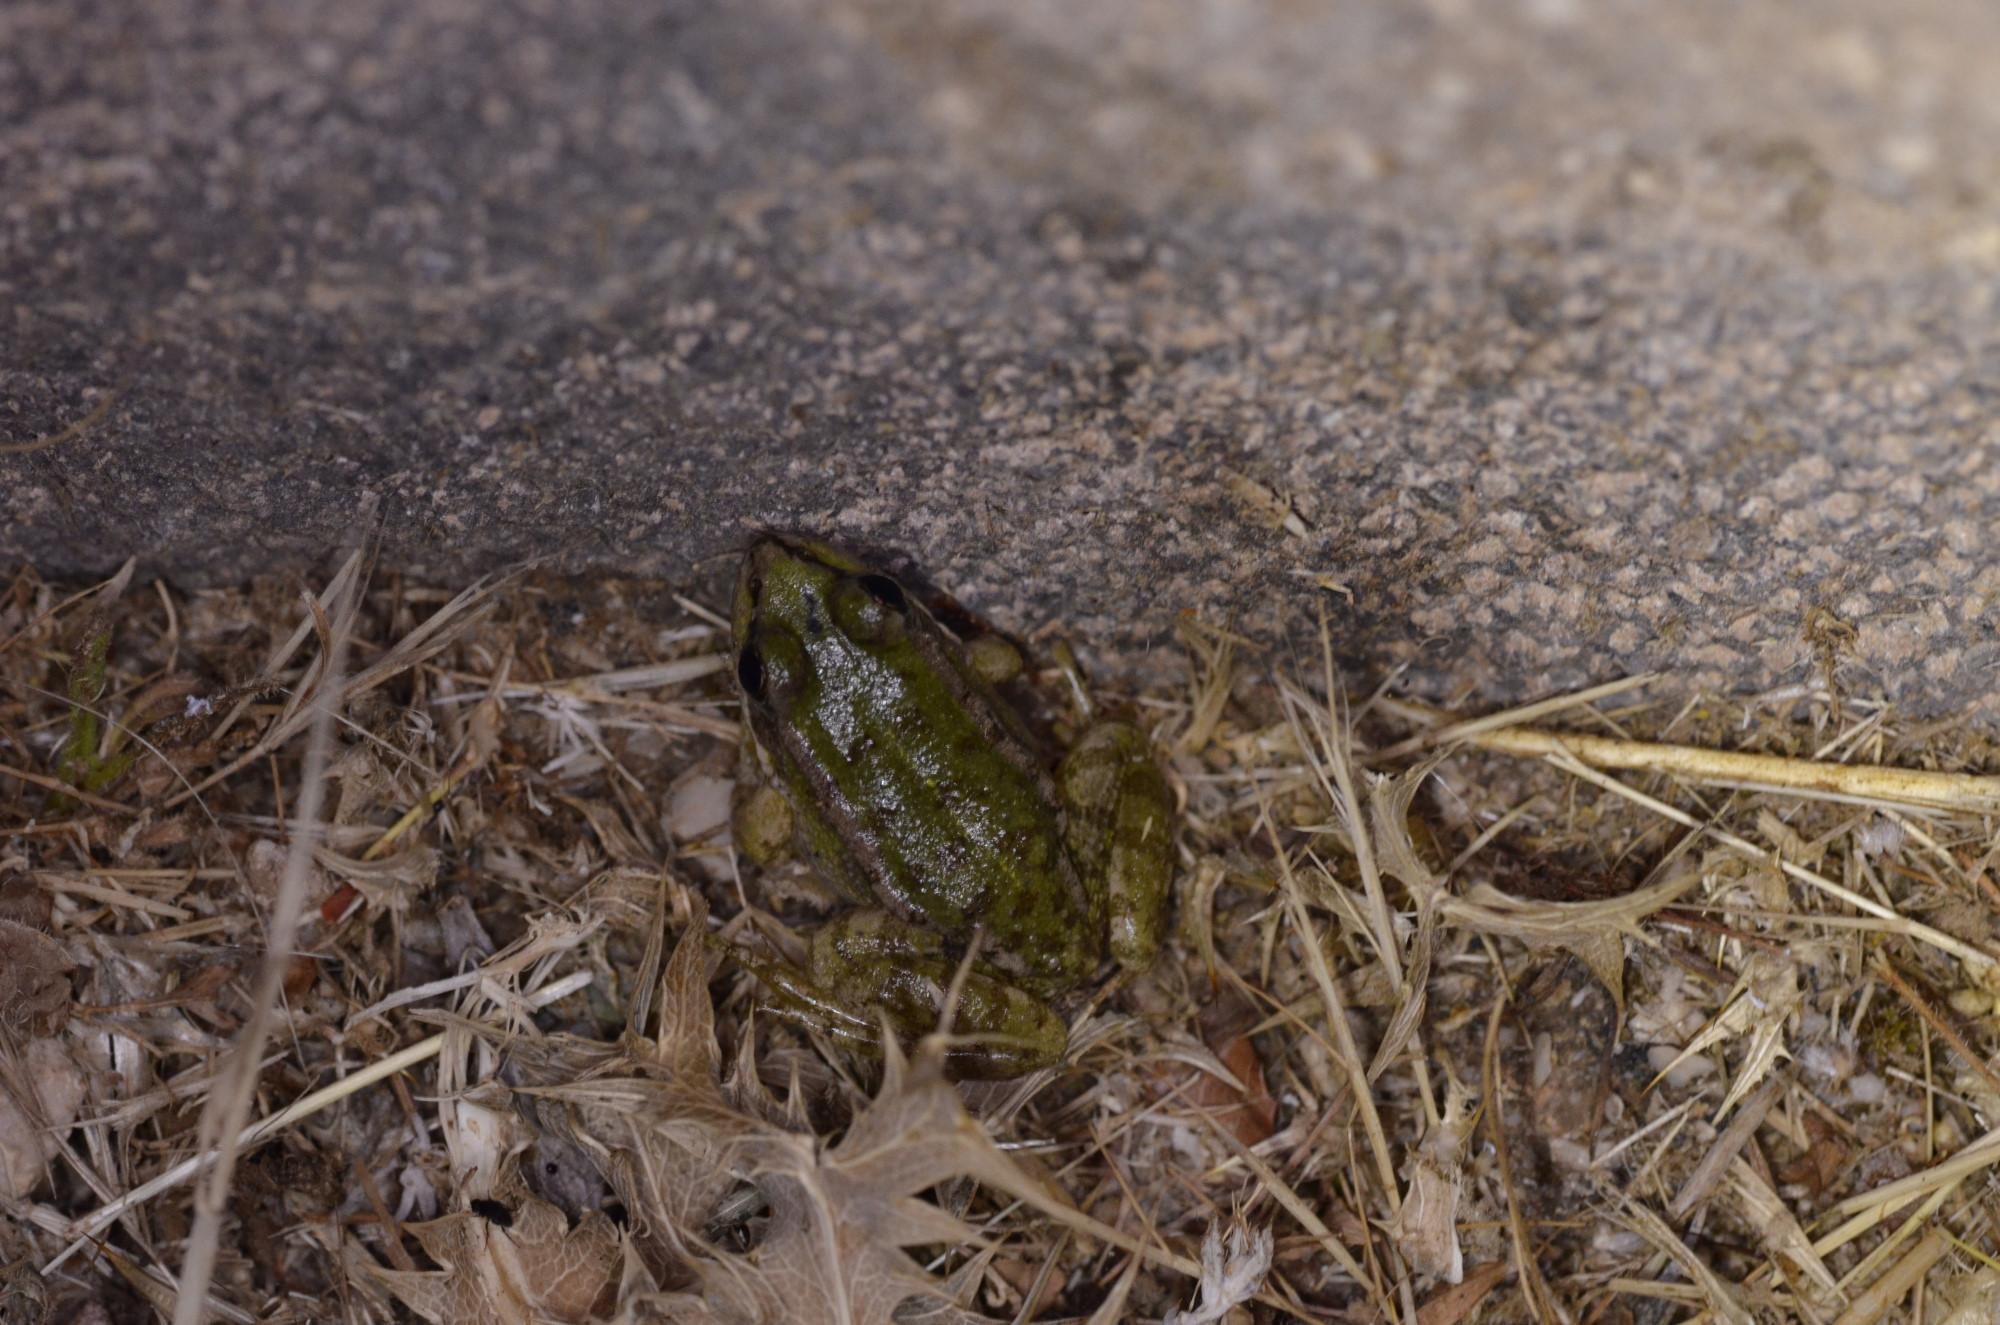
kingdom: Animalia
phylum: Chordata
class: Amphibia
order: Anura
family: Ranidae
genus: Pelophylax
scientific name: Pelophylax cretensis
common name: Cretan frog
